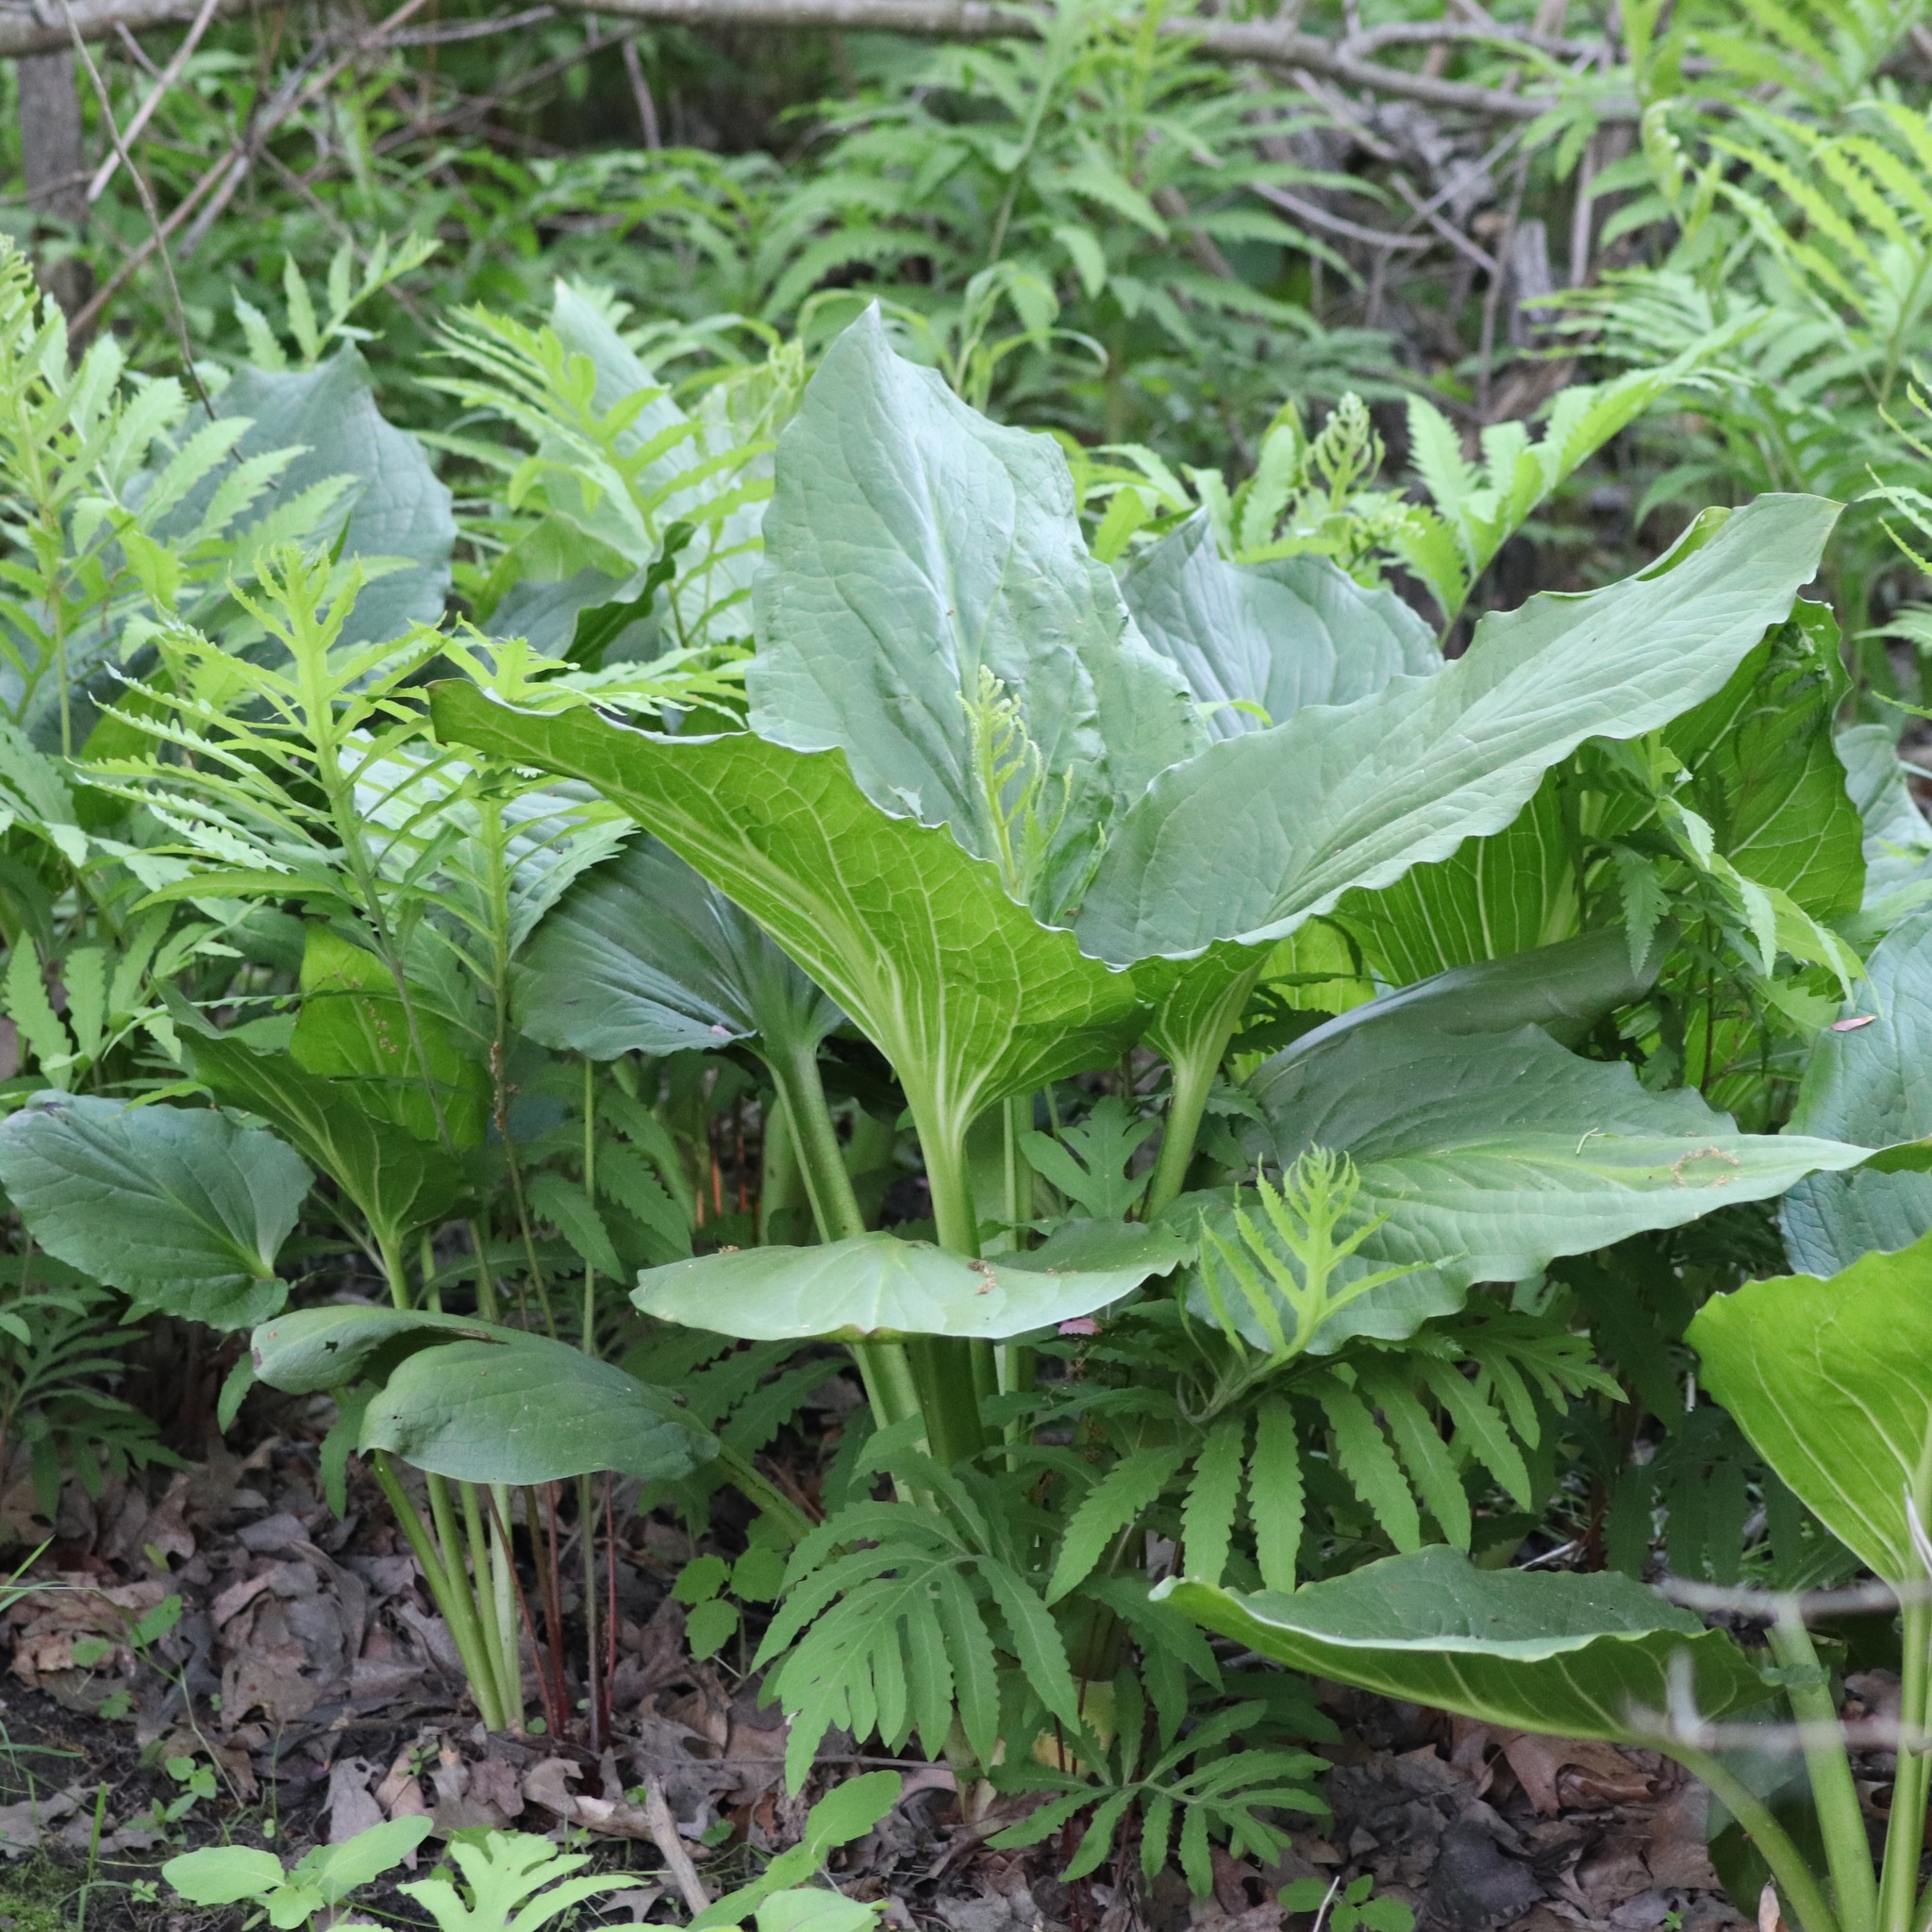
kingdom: Plantae
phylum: Tracheophyta
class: Liliopsida
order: Alismatales
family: Araceae
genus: Symplocarpus
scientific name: Symplocarpus foetidus
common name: Eastern skunk cabbage
